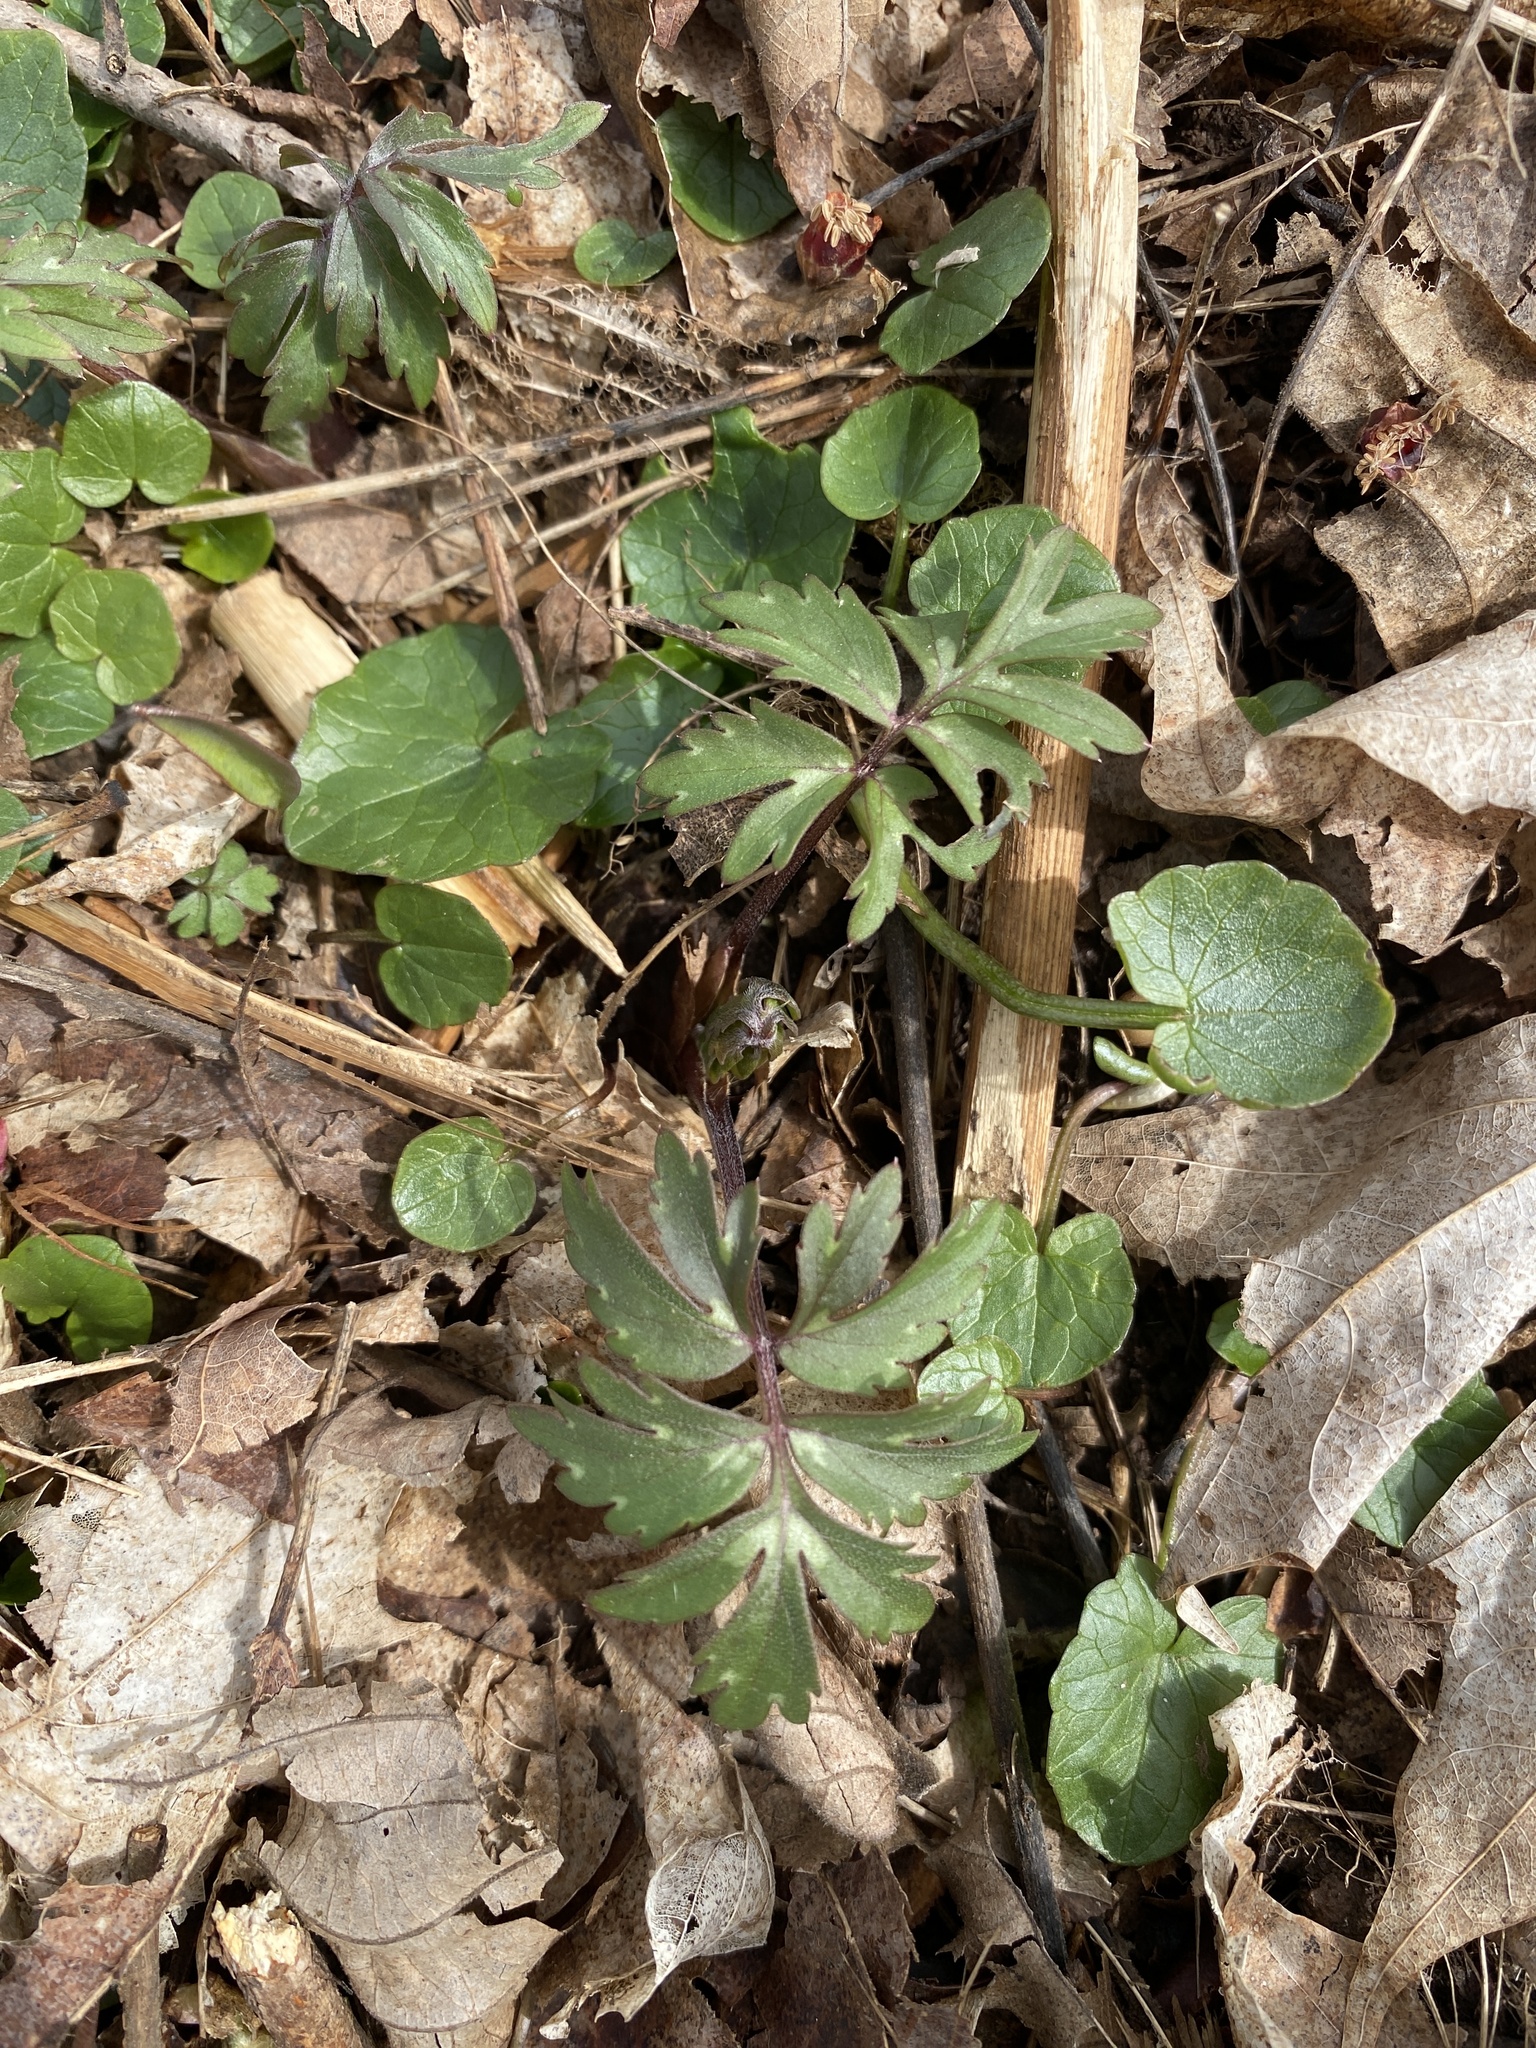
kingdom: Plantae
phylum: Tracheophyta
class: Magnoliopsida
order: Boraginales
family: Hydrophyllaceae
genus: Hydrophyllum
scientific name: Hydrophyllum virginianum
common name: Virginia waterleaf
